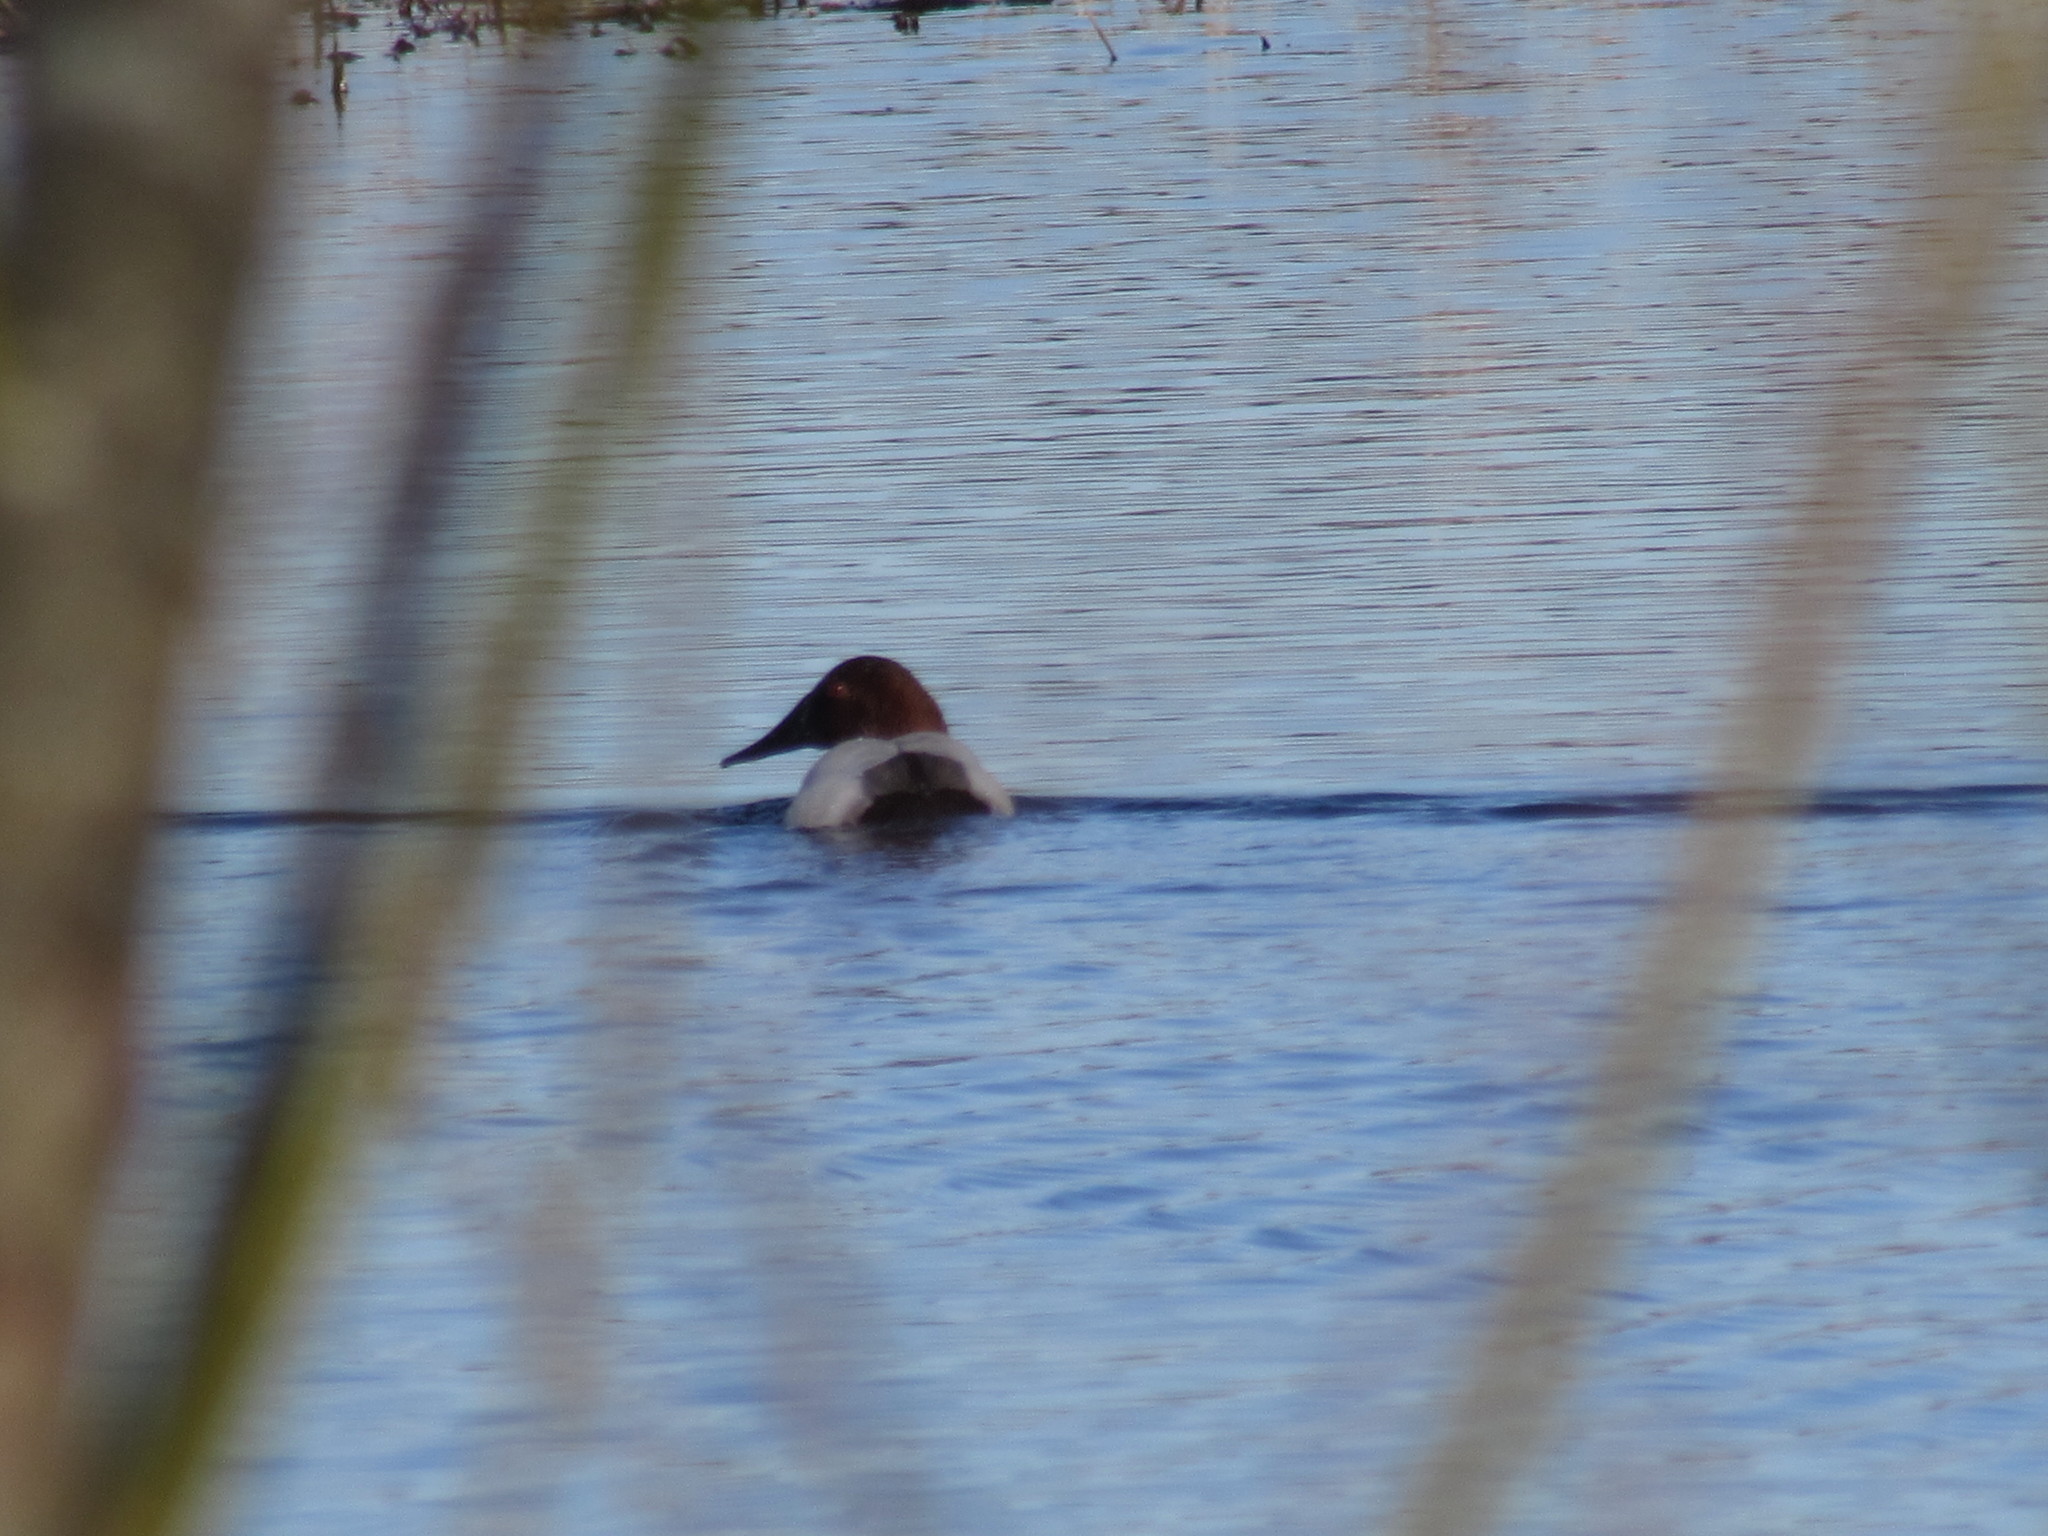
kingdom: Animalia
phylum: Chordata
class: Aves
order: Anseriformes
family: Anatidae
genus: Aythya
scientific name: Aythya valisineria
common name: Canvasback
